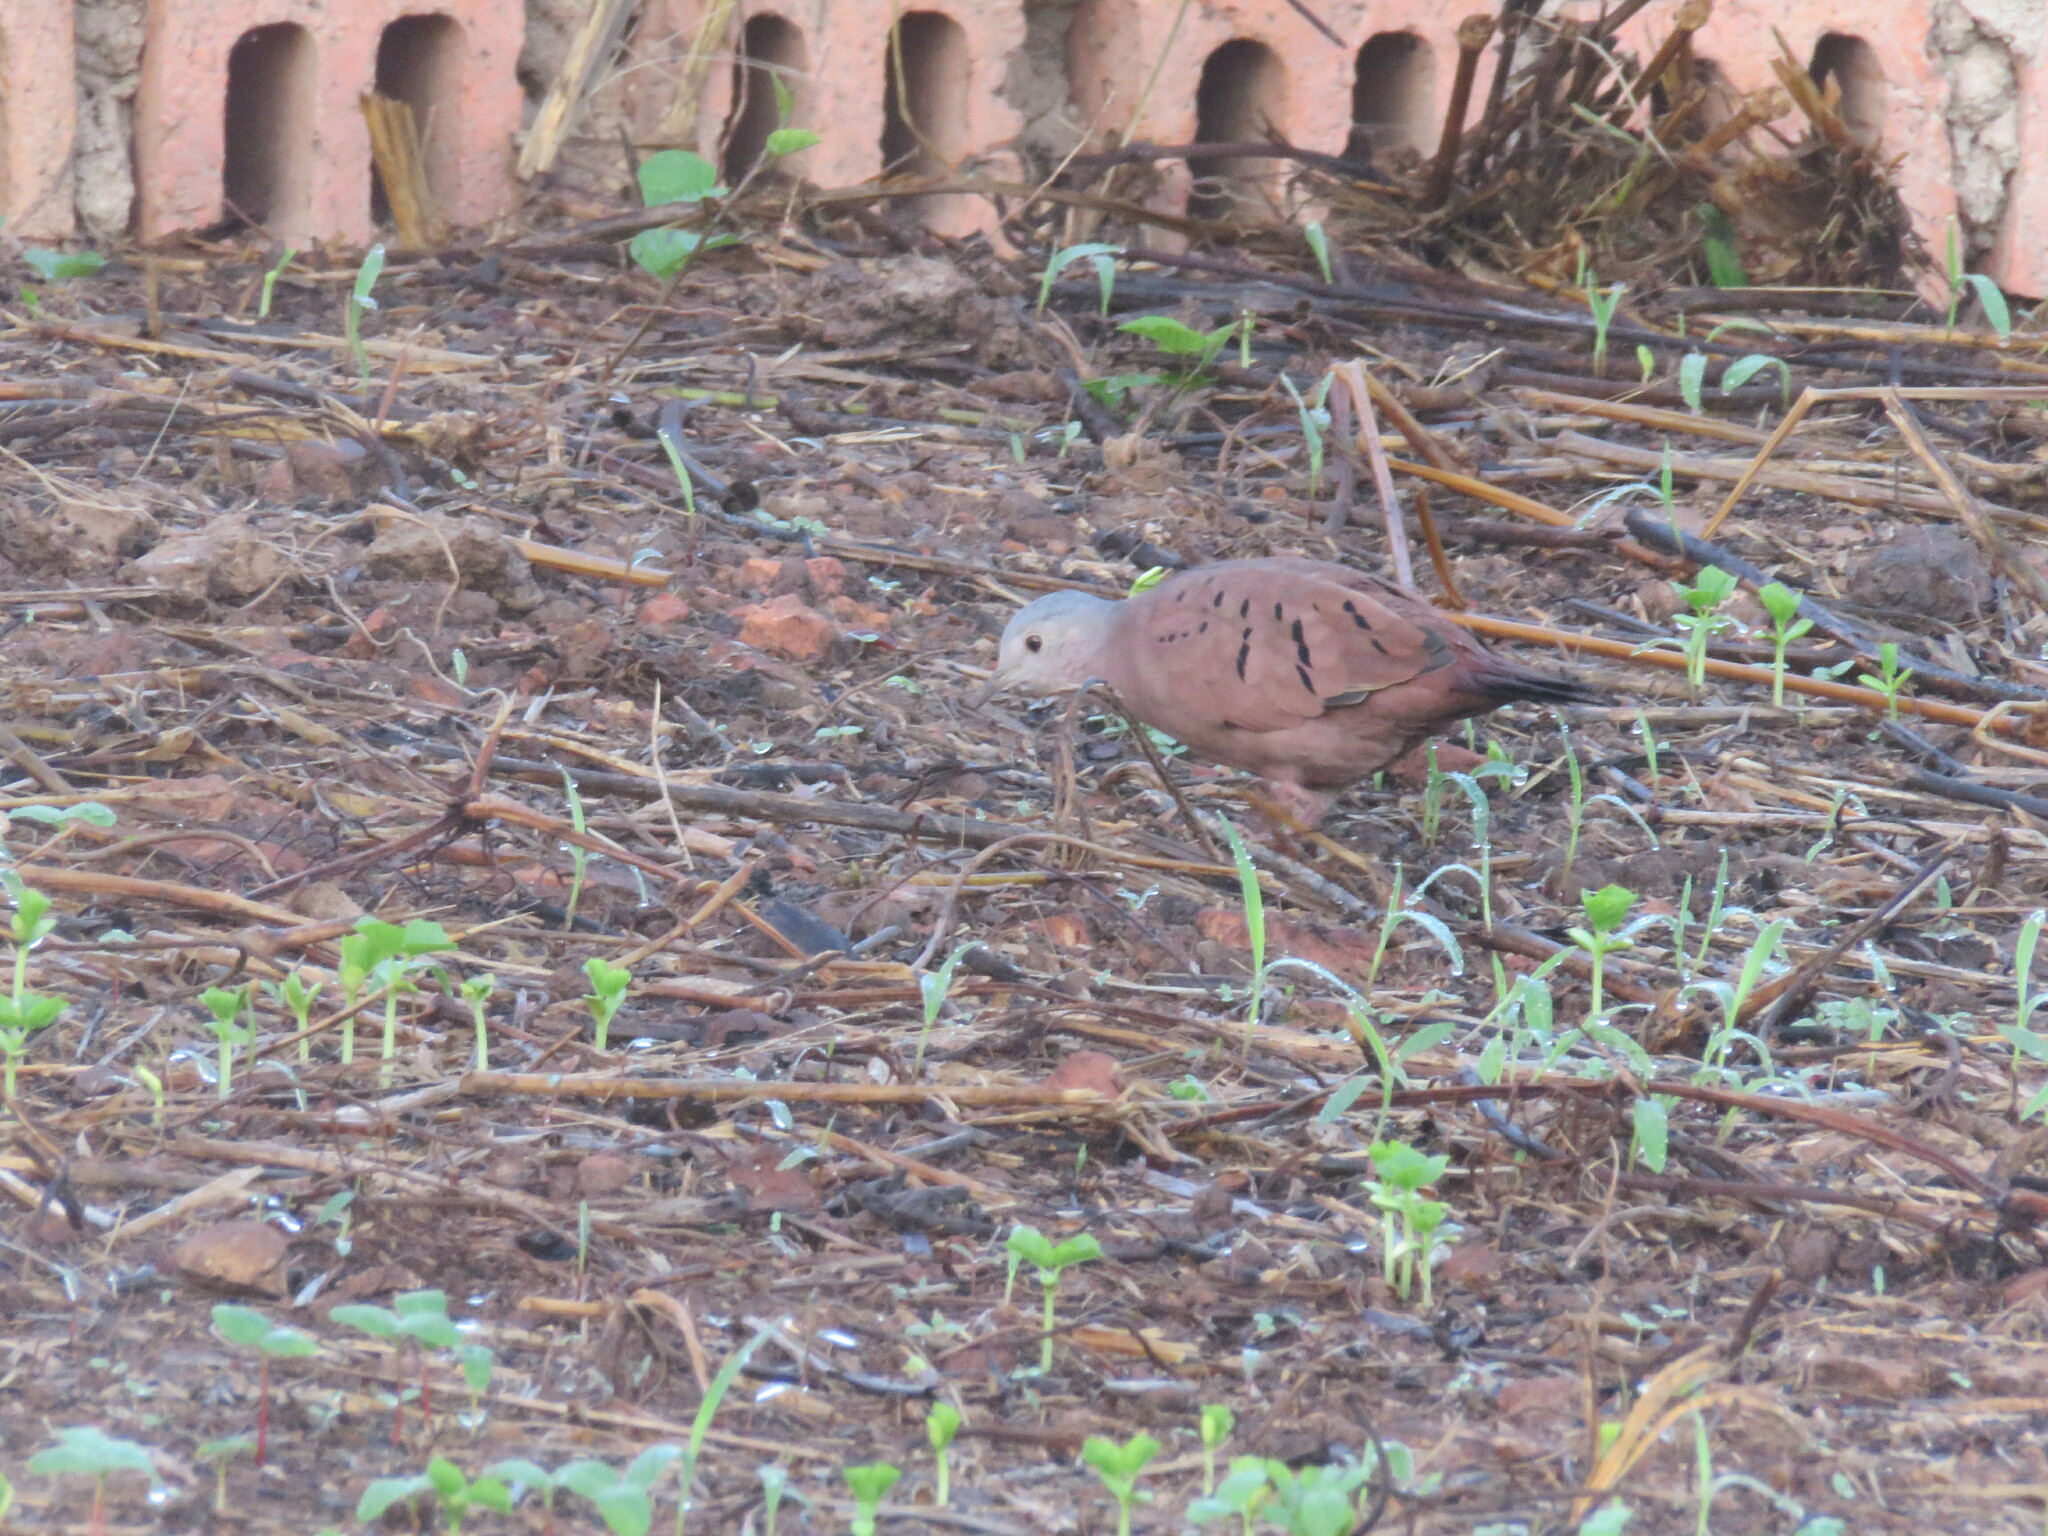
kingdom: Animalia
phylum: Chordata
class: Aves
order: Columbiformes
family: Columbidae
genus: Columbina
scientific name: Columbina talpacoti
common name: Ruddy ground dove
